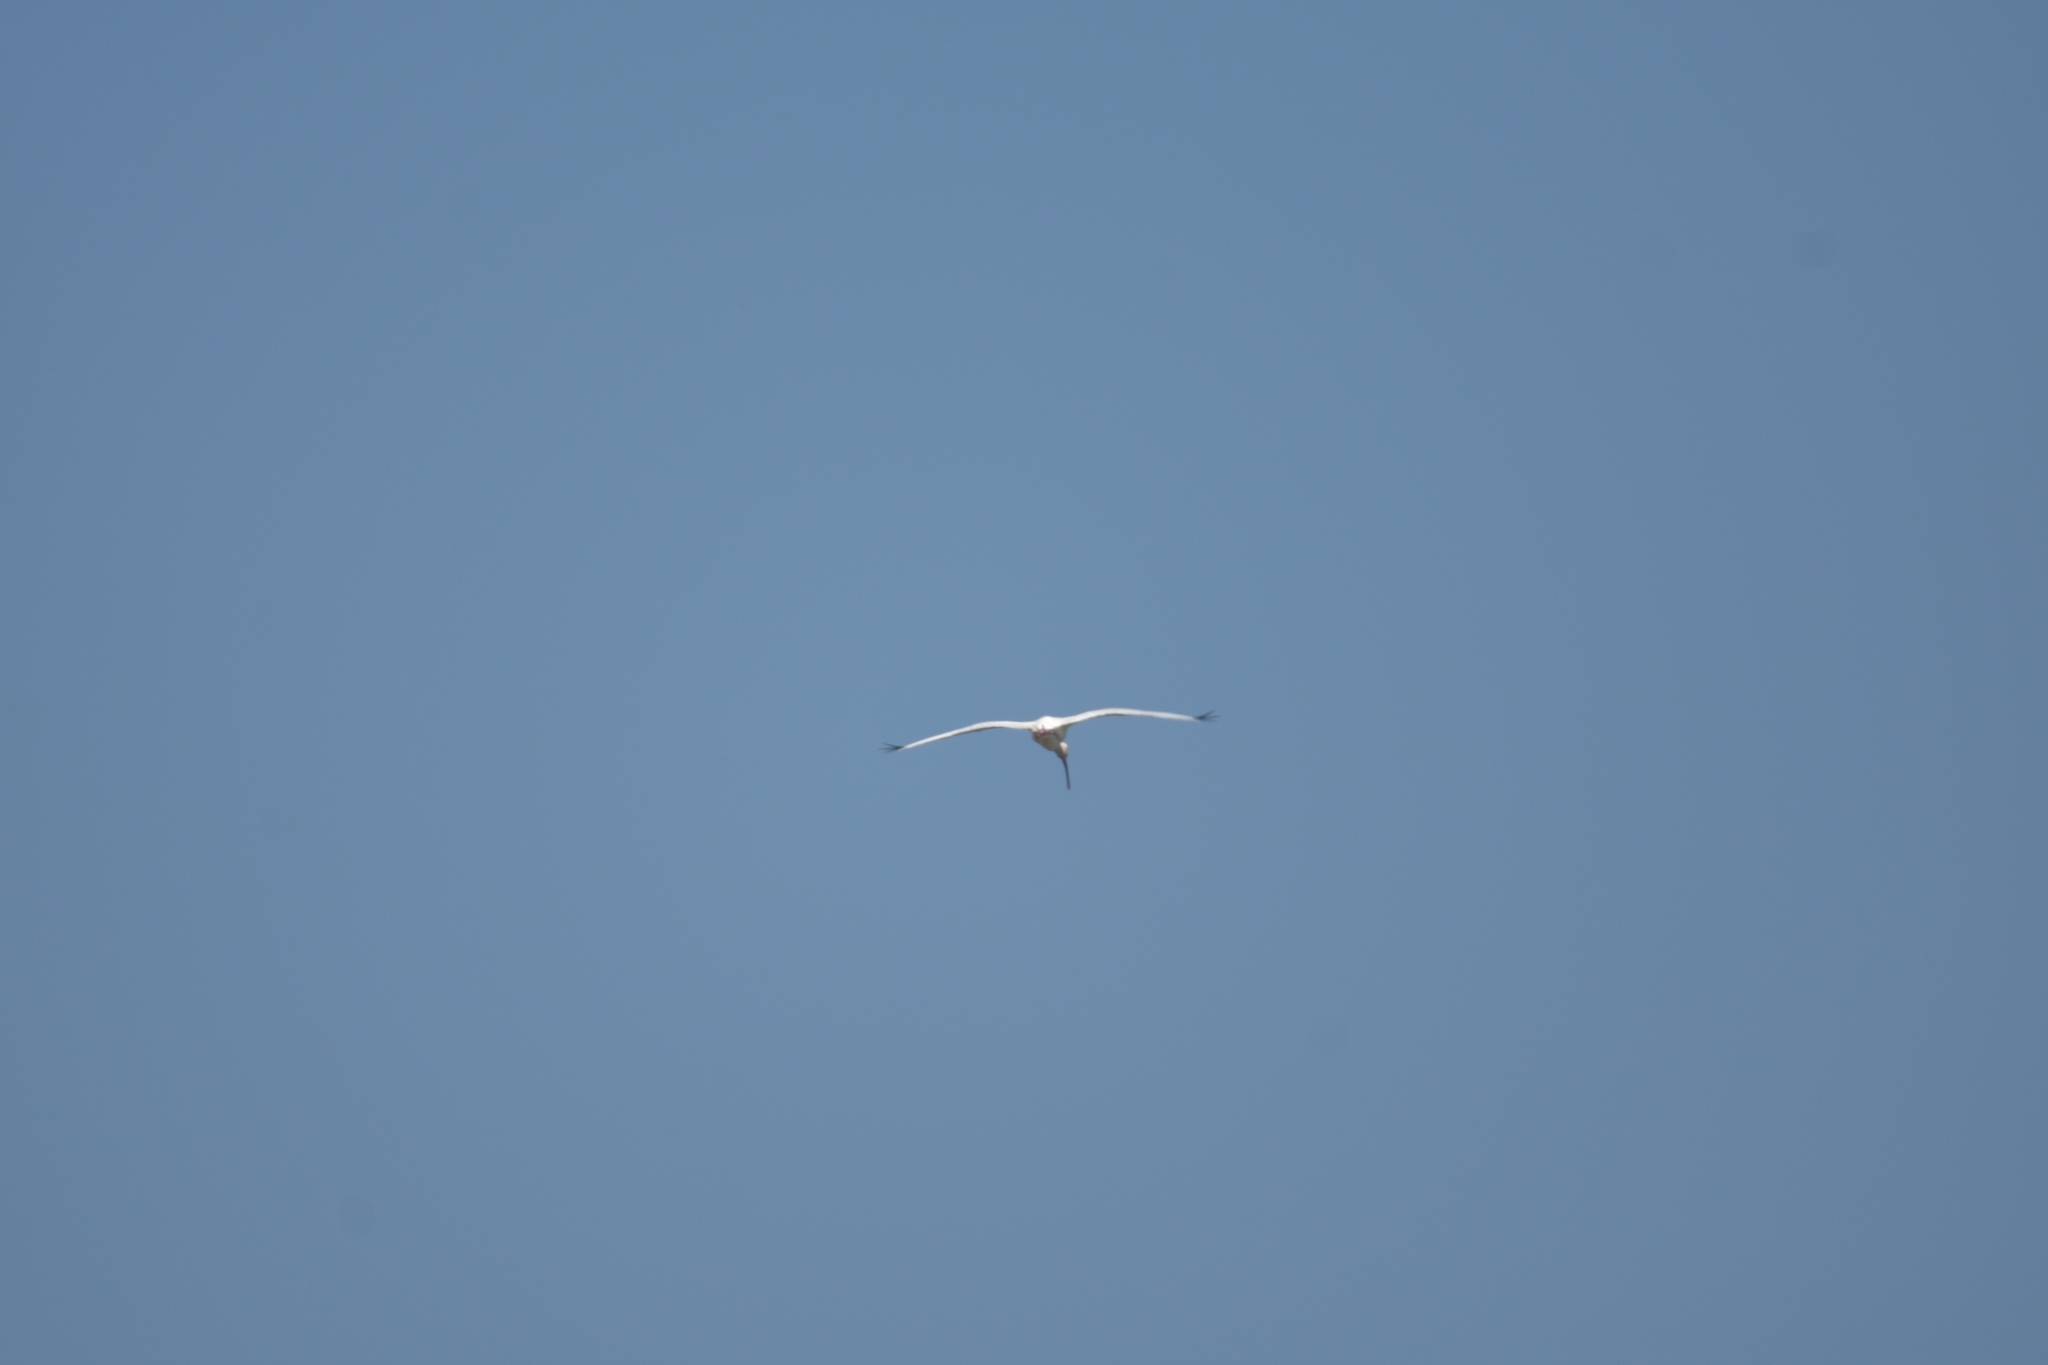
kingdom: Animalia
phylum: Chordata
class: Aves
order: Pelecaniformes
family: Threskiornithidae
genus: Eudocimus
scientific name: Eudocimus albus
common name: White ibis
